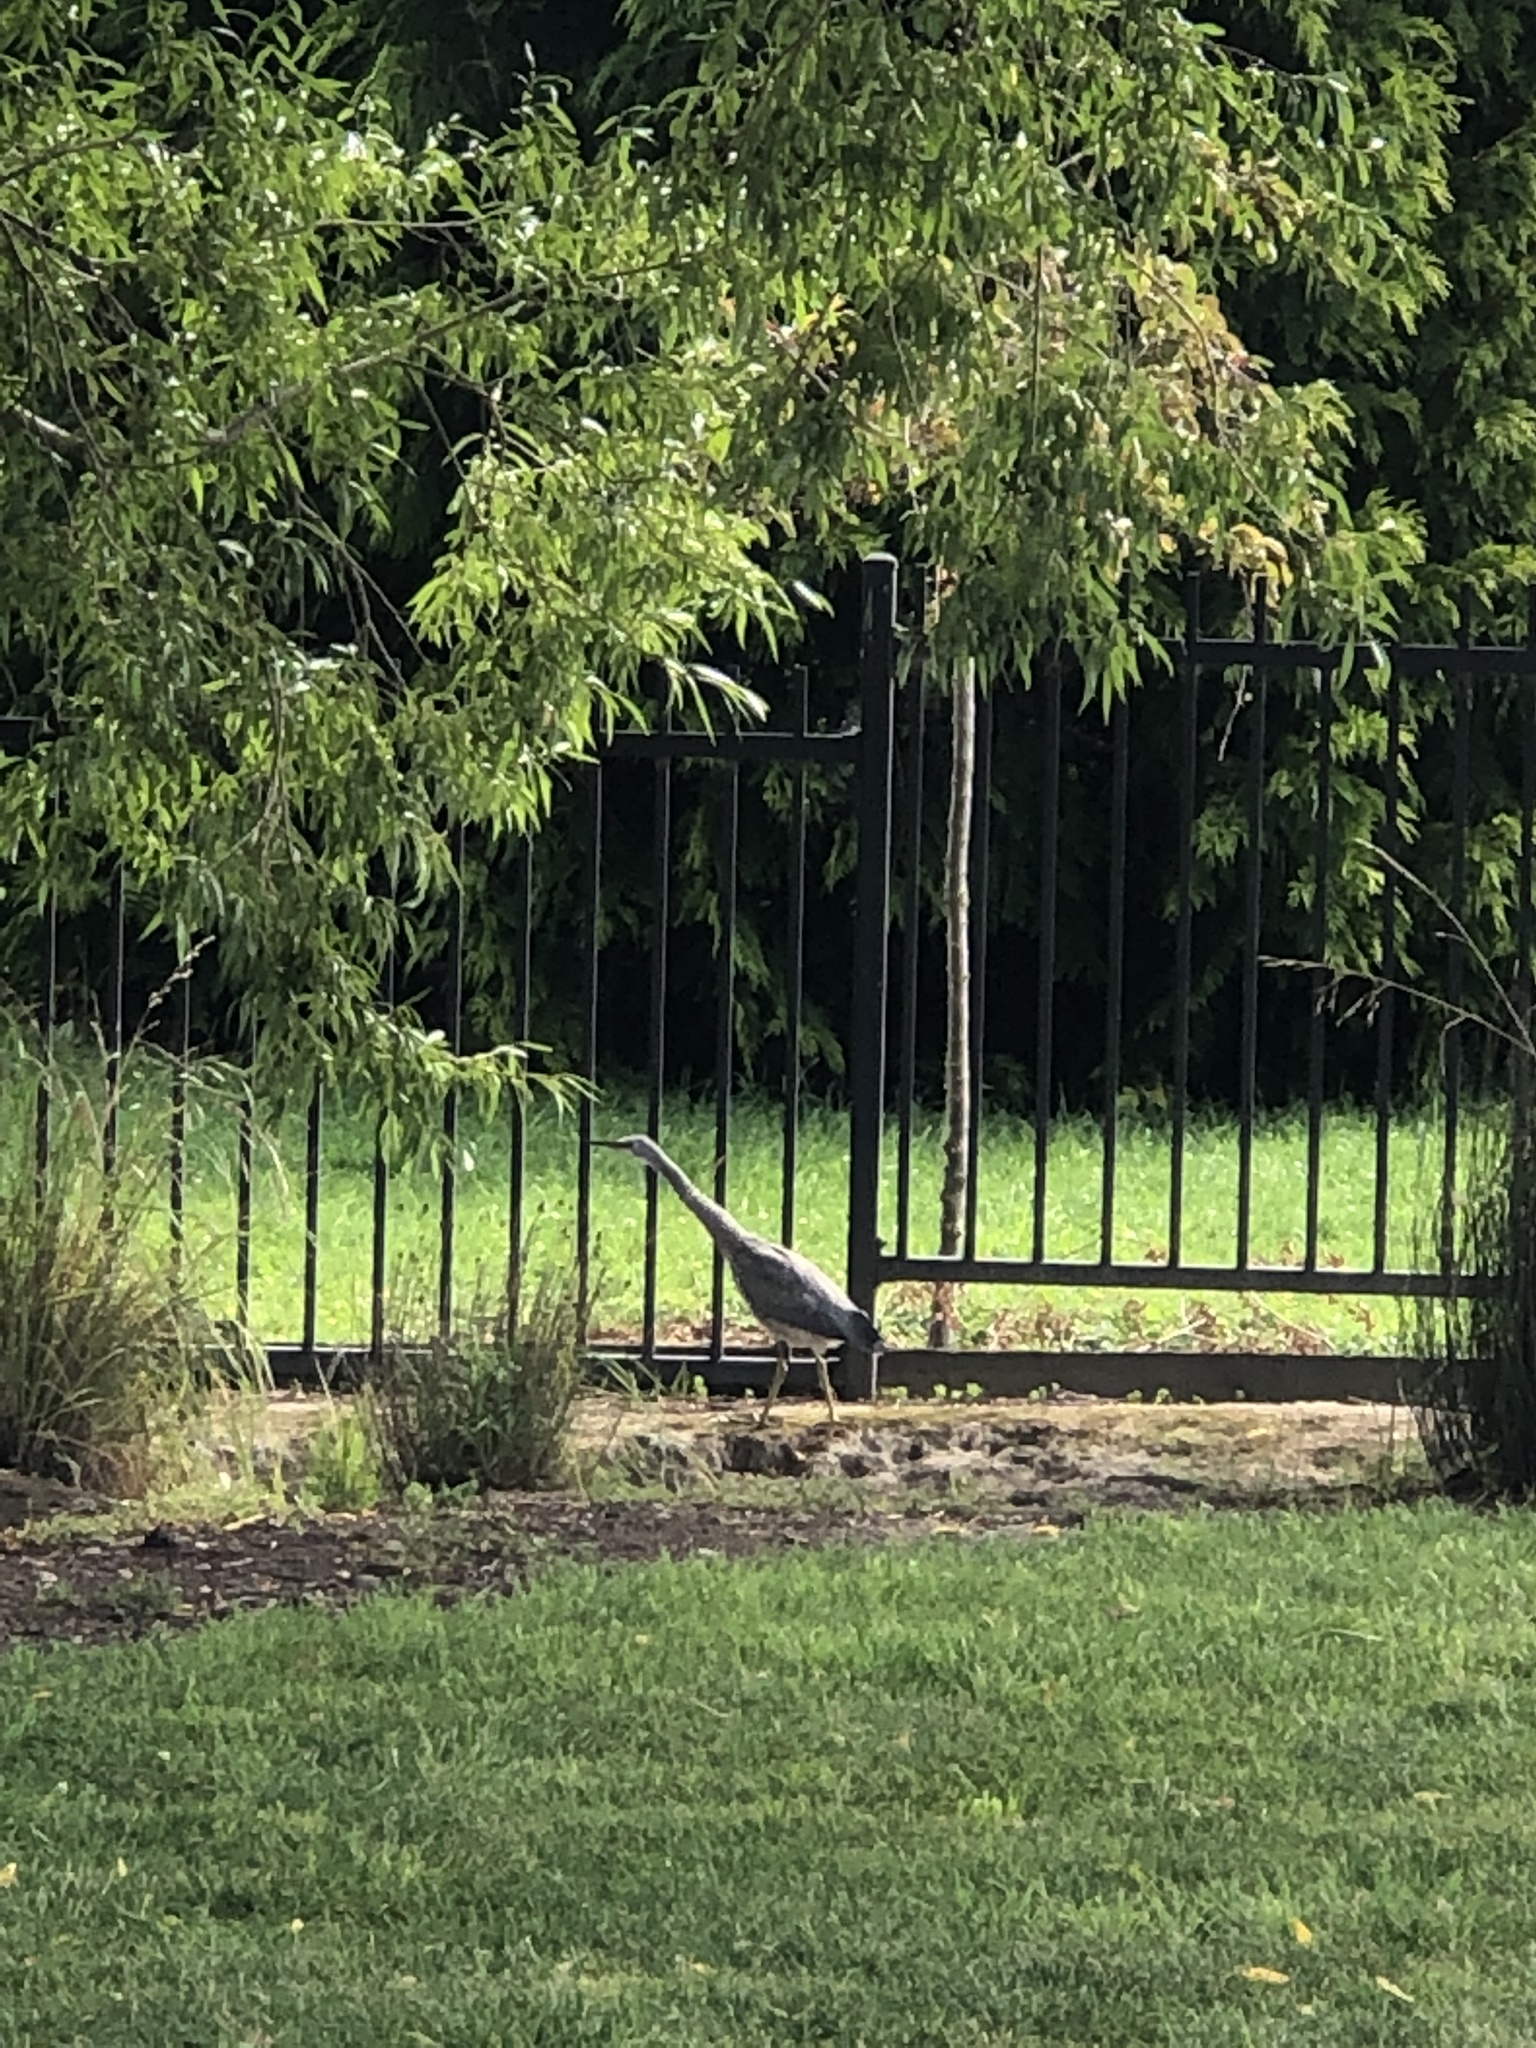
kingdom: Animalia
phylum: Chordata
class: Aves
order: Pelecaniformes
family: Ardeidae
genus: Egretta
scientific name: Egretta novaehollandiae
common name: White-faced heron
